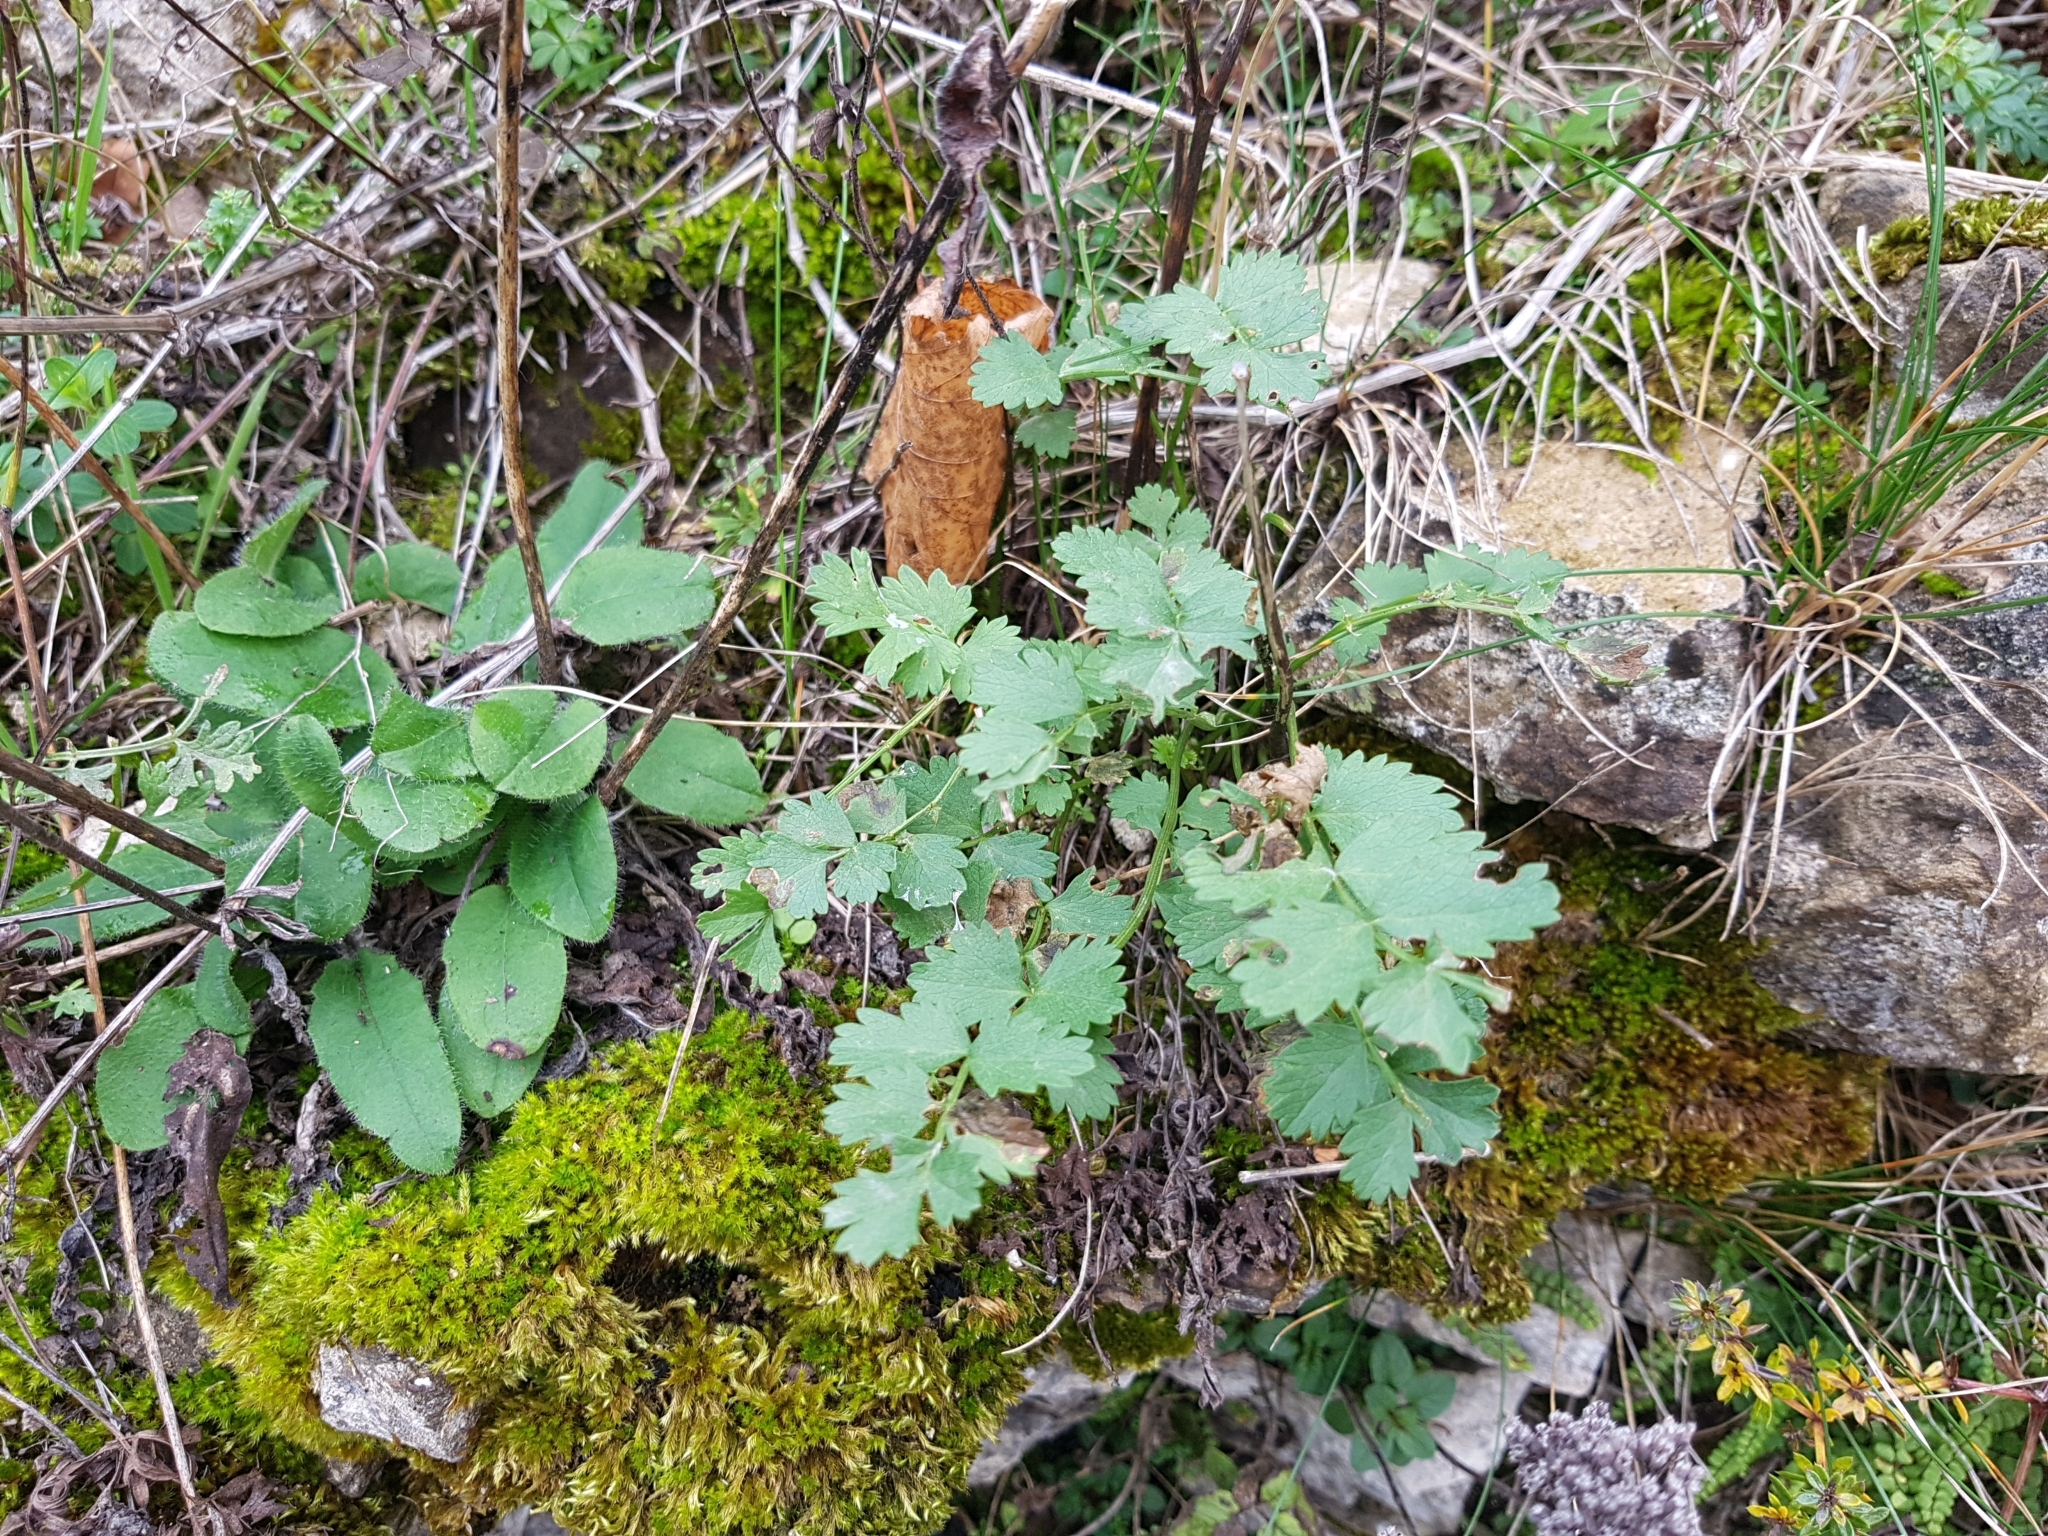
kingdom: Plantae
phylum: Tracheophyta
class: Magnoliopsida
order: Rosales
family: Rosaceae
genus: Poterium
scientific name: Poterium sanguisorba
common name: Salad burnet
